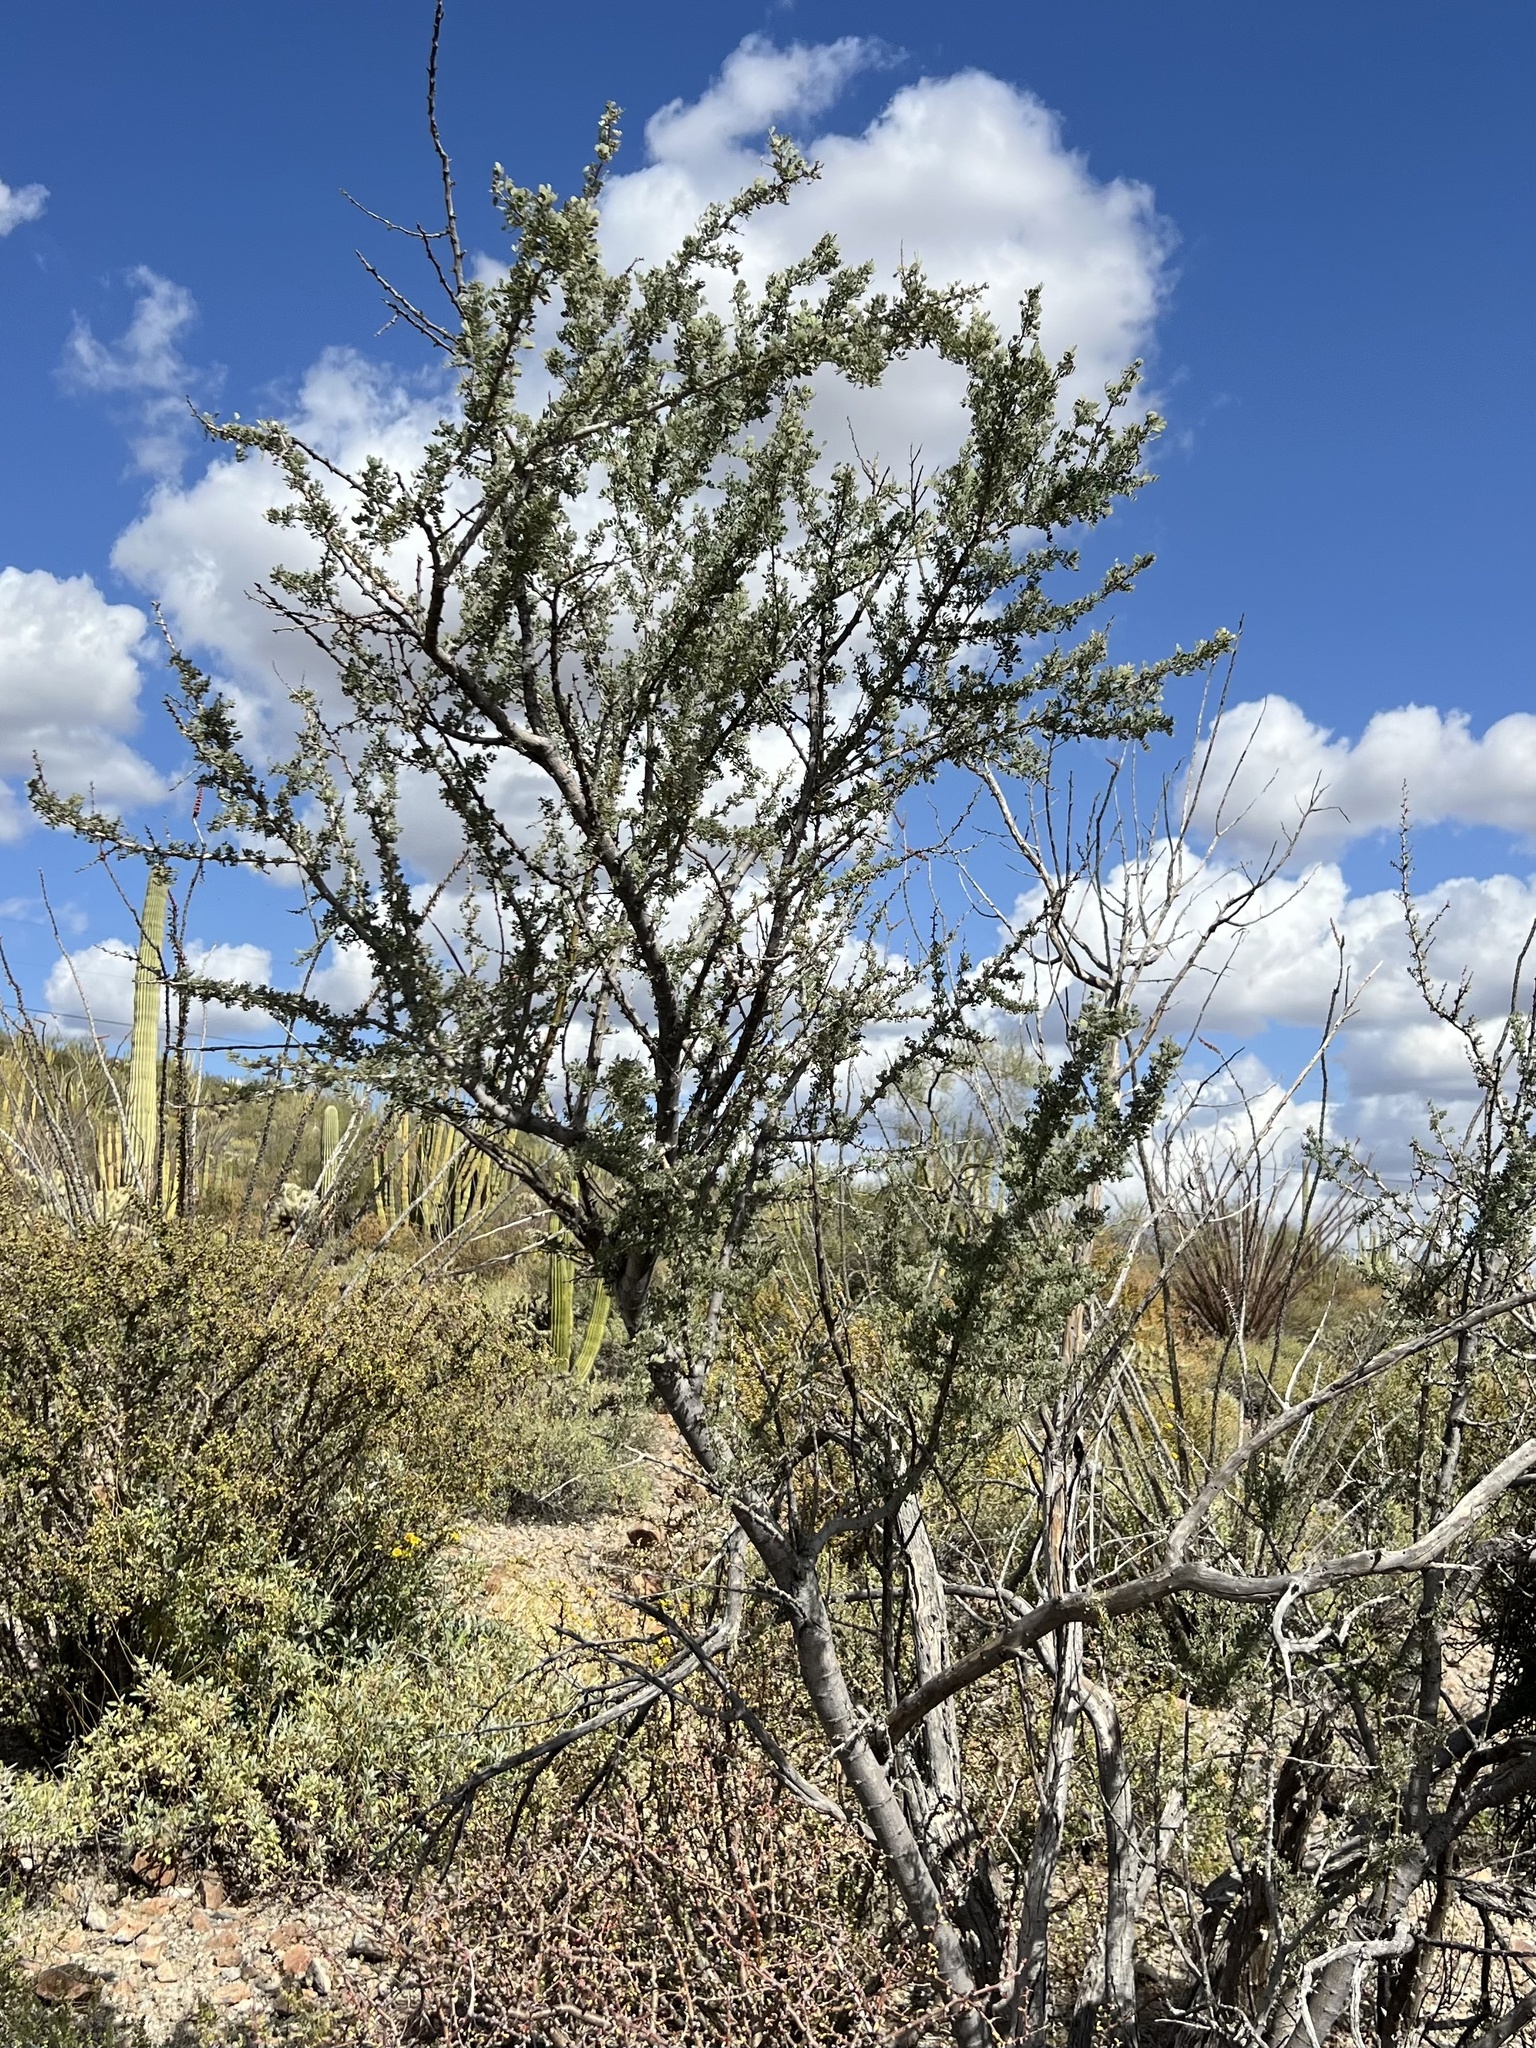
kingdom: Plantae
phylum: Tracheophyta
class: Magnoliopsida
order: Fabales
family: Fabaceae
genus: Olneya
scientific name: Olneya tesota
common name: Desert ironwood
